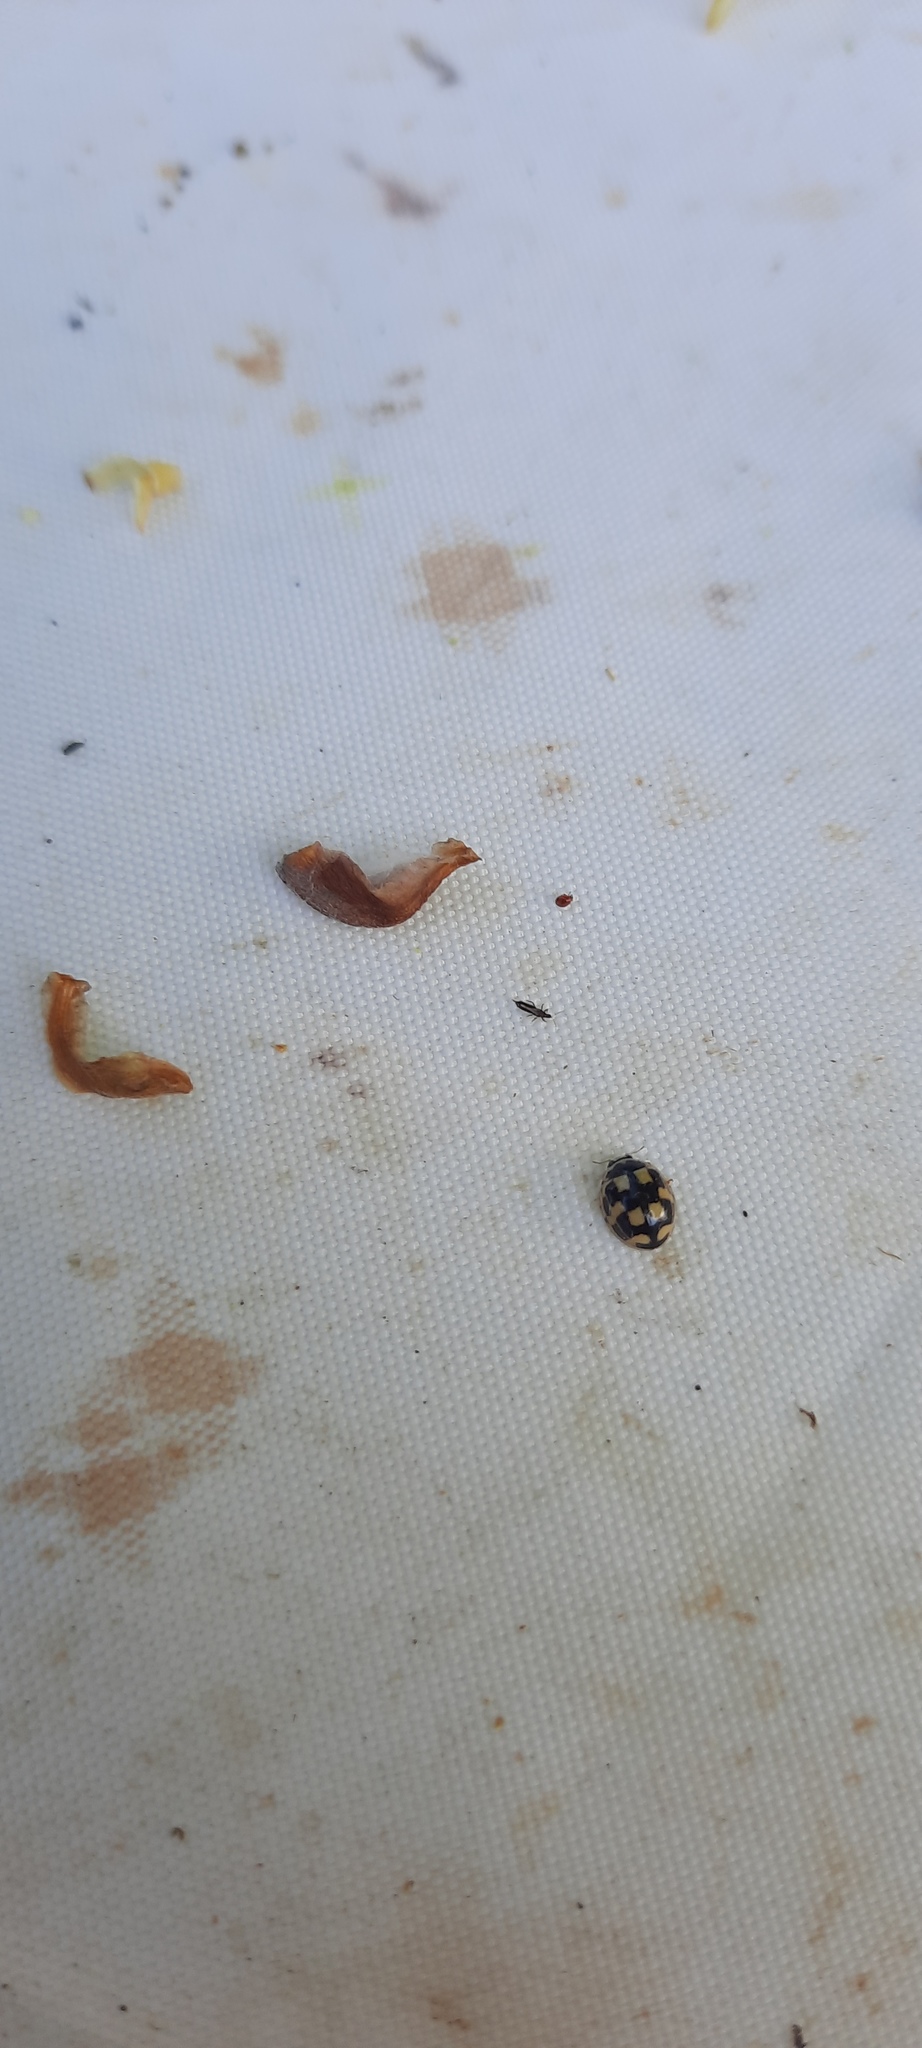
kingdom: Animalia
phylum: Arthropoda
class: Insecta
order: Coleoptera
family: Coccinellidae
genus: Propylaea
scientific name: Propylaea quatuordecimpunctata
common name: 14-spotted ladybird beetle
